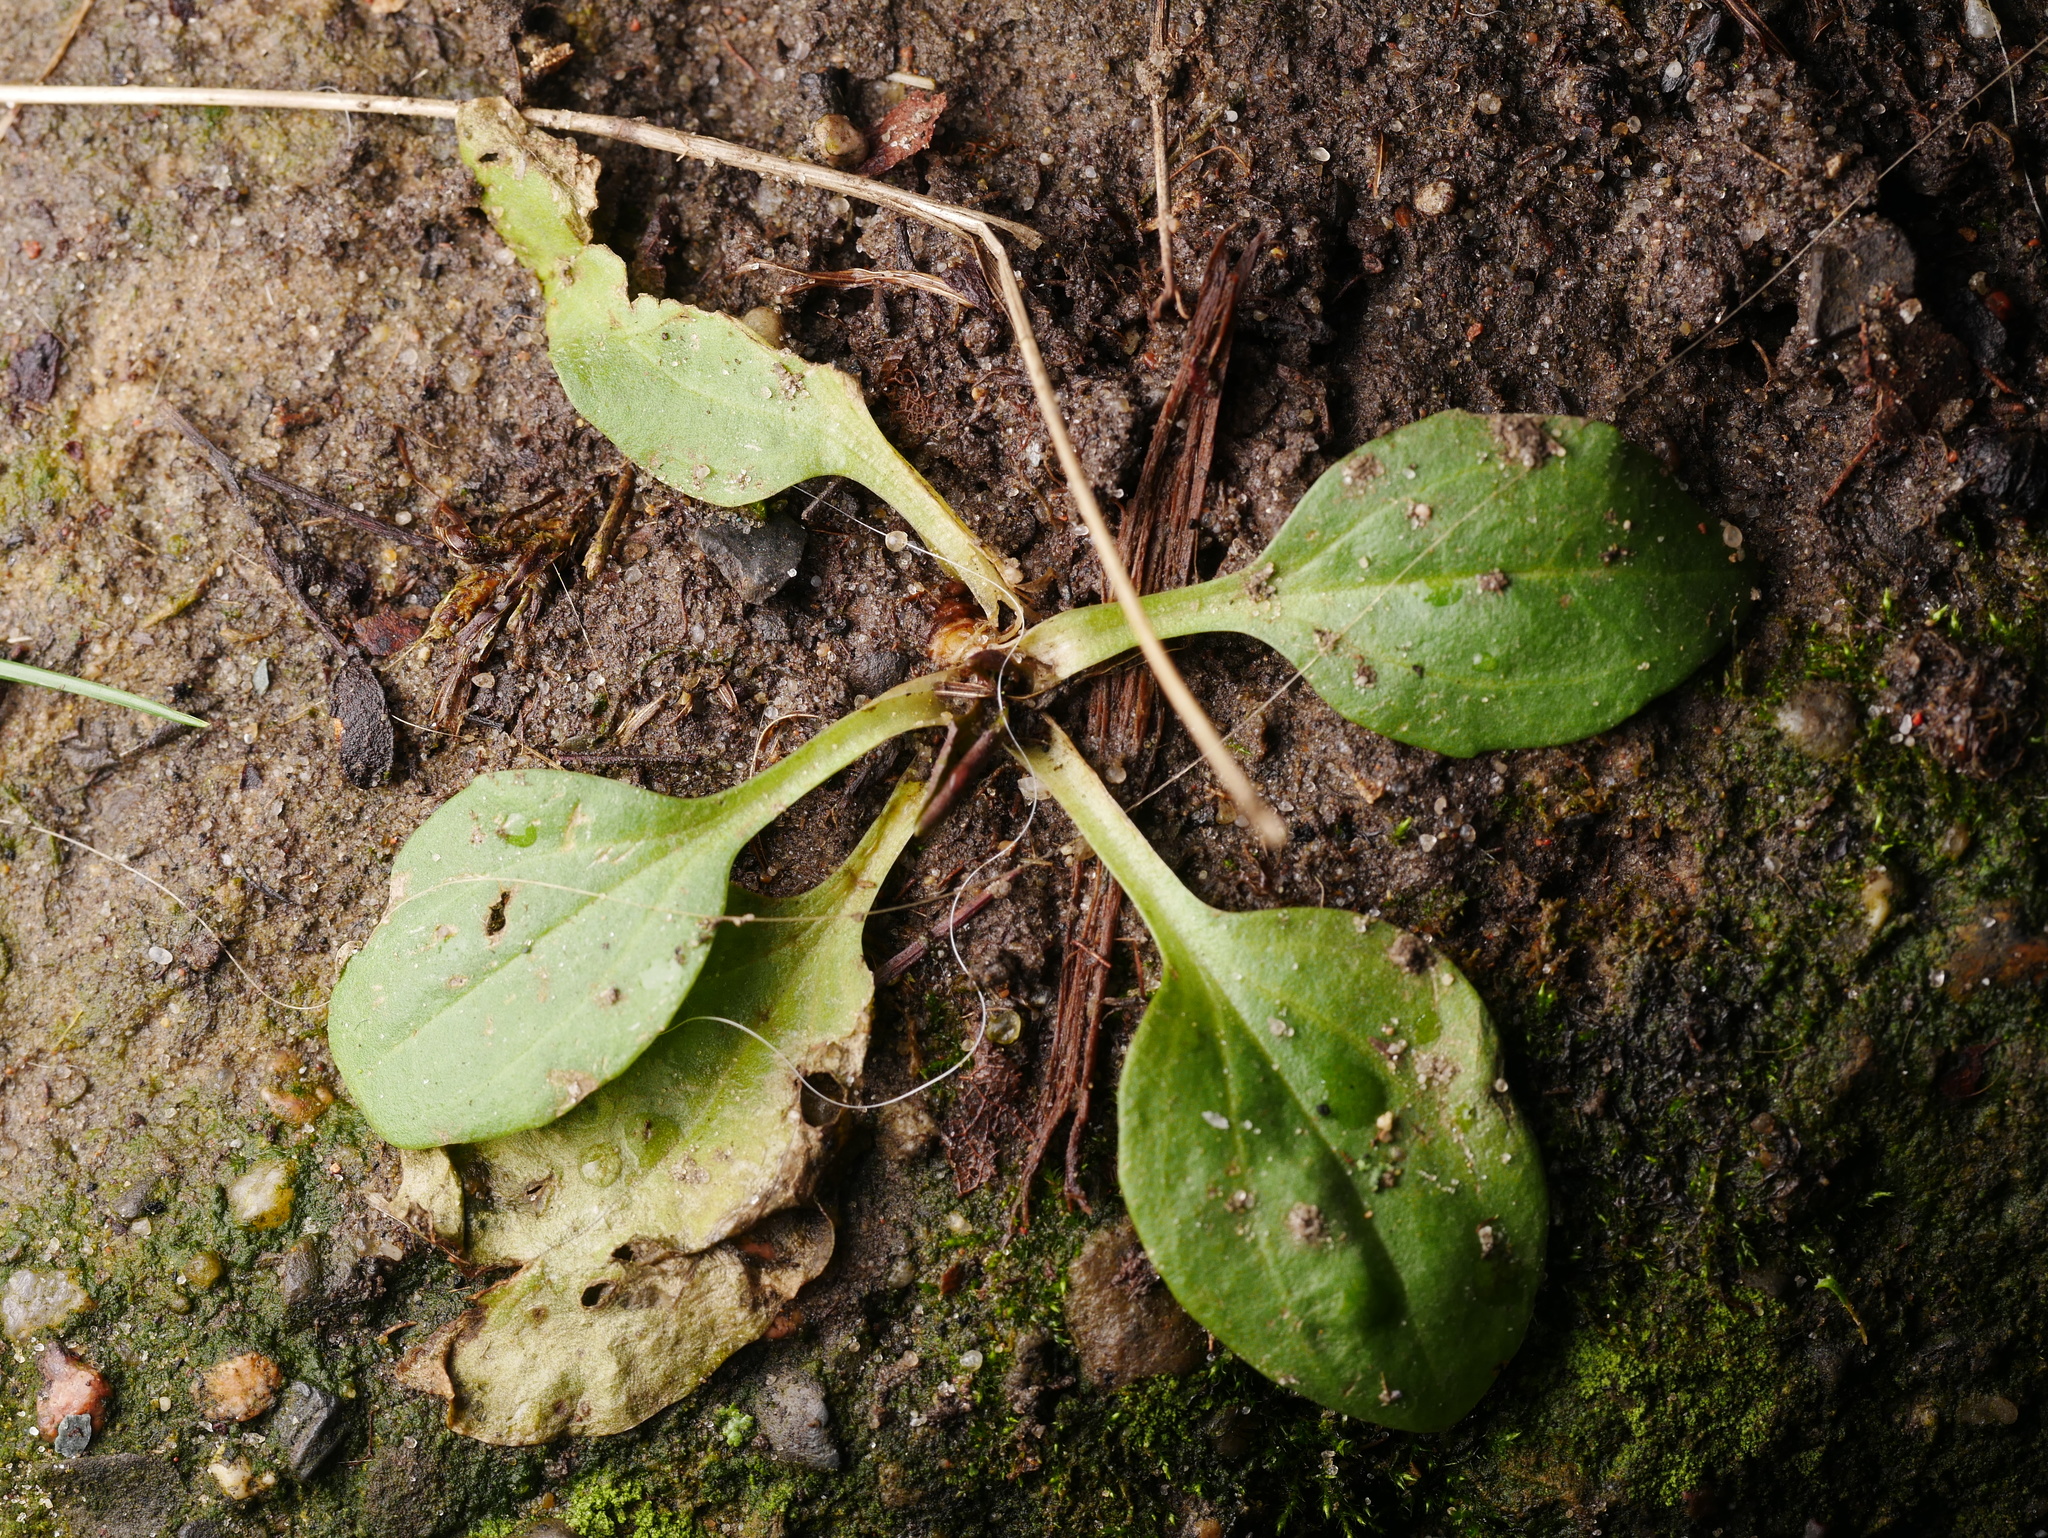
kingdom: Plantae
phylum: Tracheophyta
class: Magnoliopsida
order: Lamiales
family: Plantaginaceae
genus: Plantago
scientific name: Plantago major
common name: Common plantain
